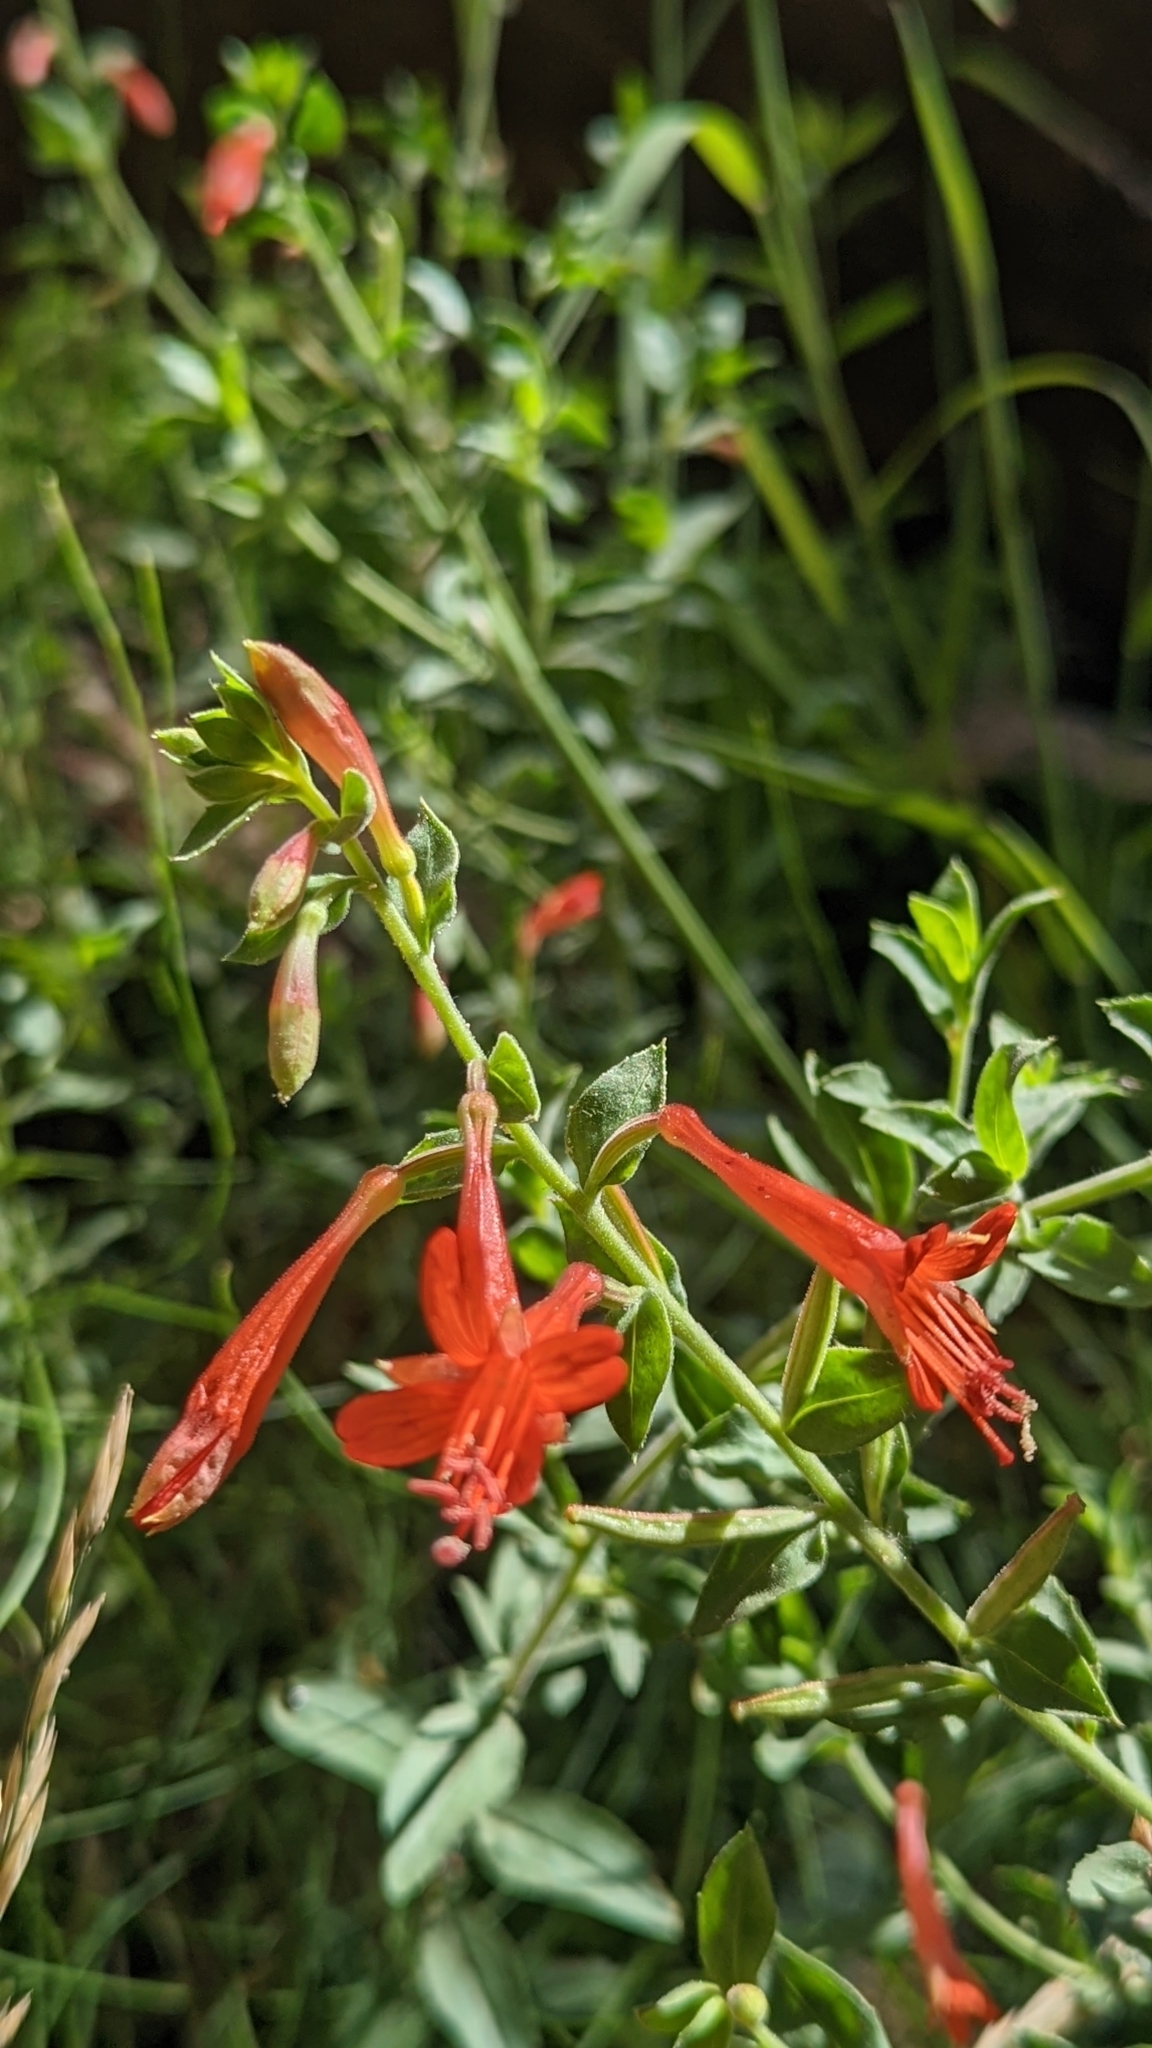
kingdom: Plantae
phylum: Tracheophyta
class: Magnoliopsida
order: Myrtales
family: Onagraceae
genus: Epilobium
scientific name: Epilobium canum
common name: California-fuchsia
